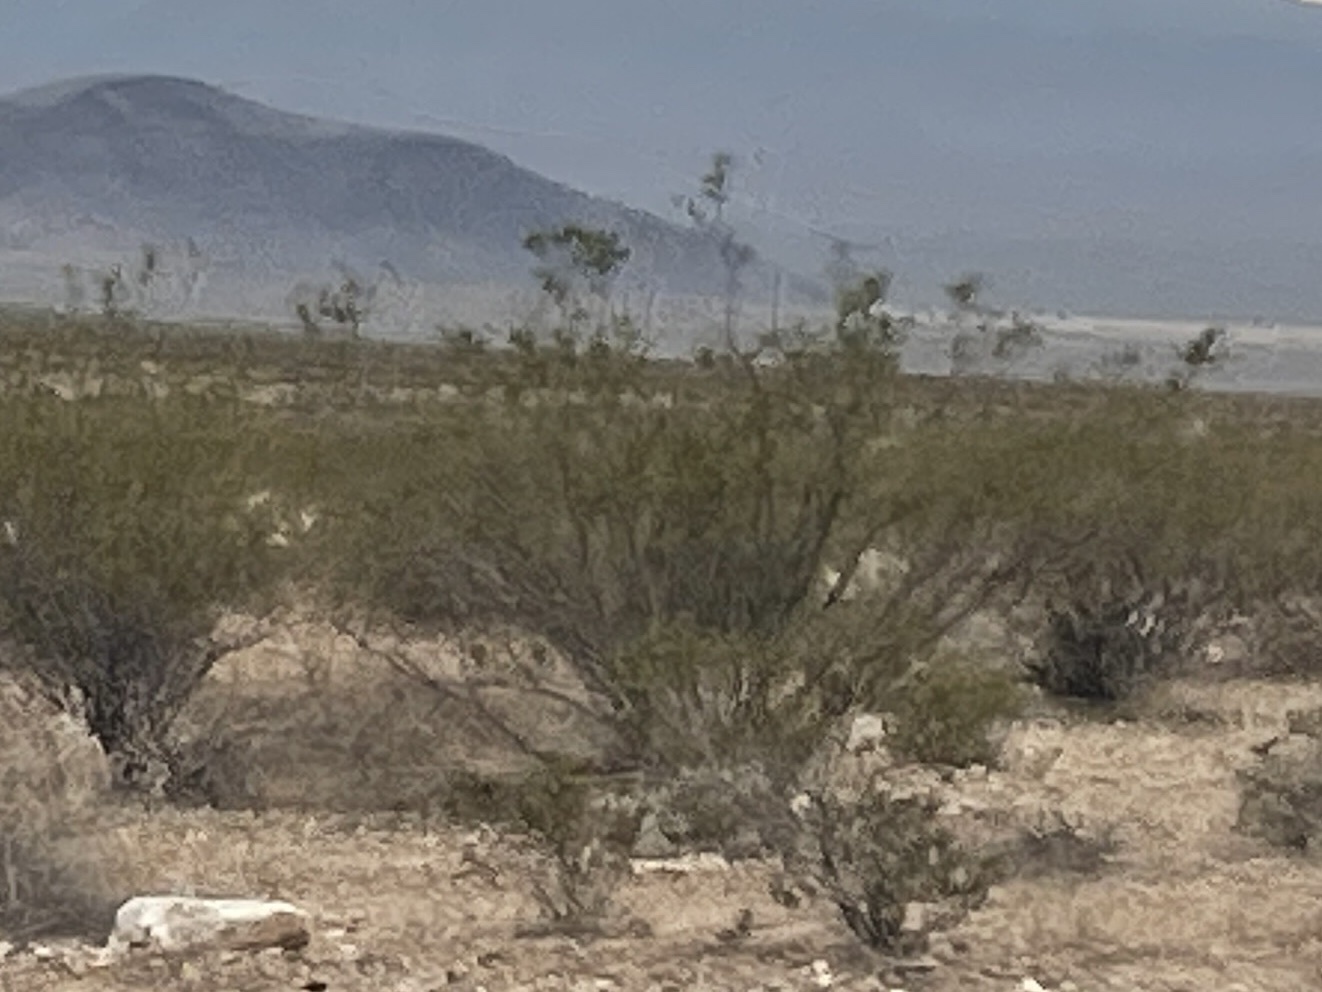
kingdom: Plantae
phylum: Tracheophyta
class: Magnoliopsida
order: Zygophyllales
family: Zygophyllaceae
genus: Larrea
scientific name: Larrea tridentata
